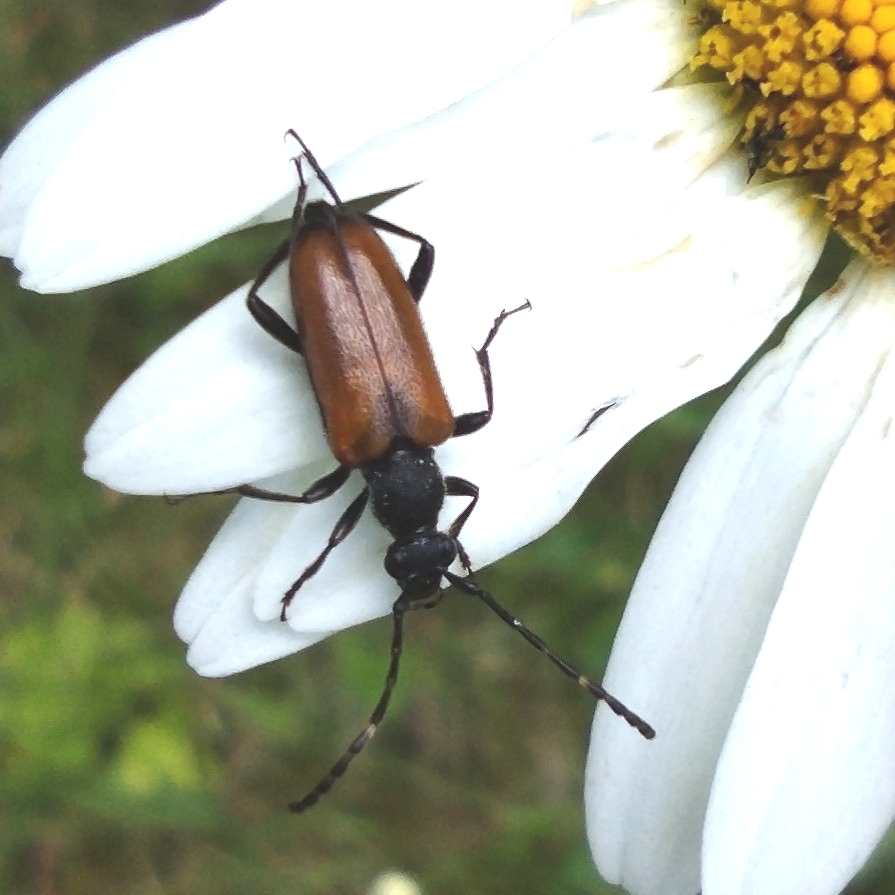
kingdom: Animalia
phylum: Arthropoda
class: Insecta
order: Coleoptera
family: Cerambycidae
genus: Paracorymbia
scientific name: Paracorymbia maculicornis
